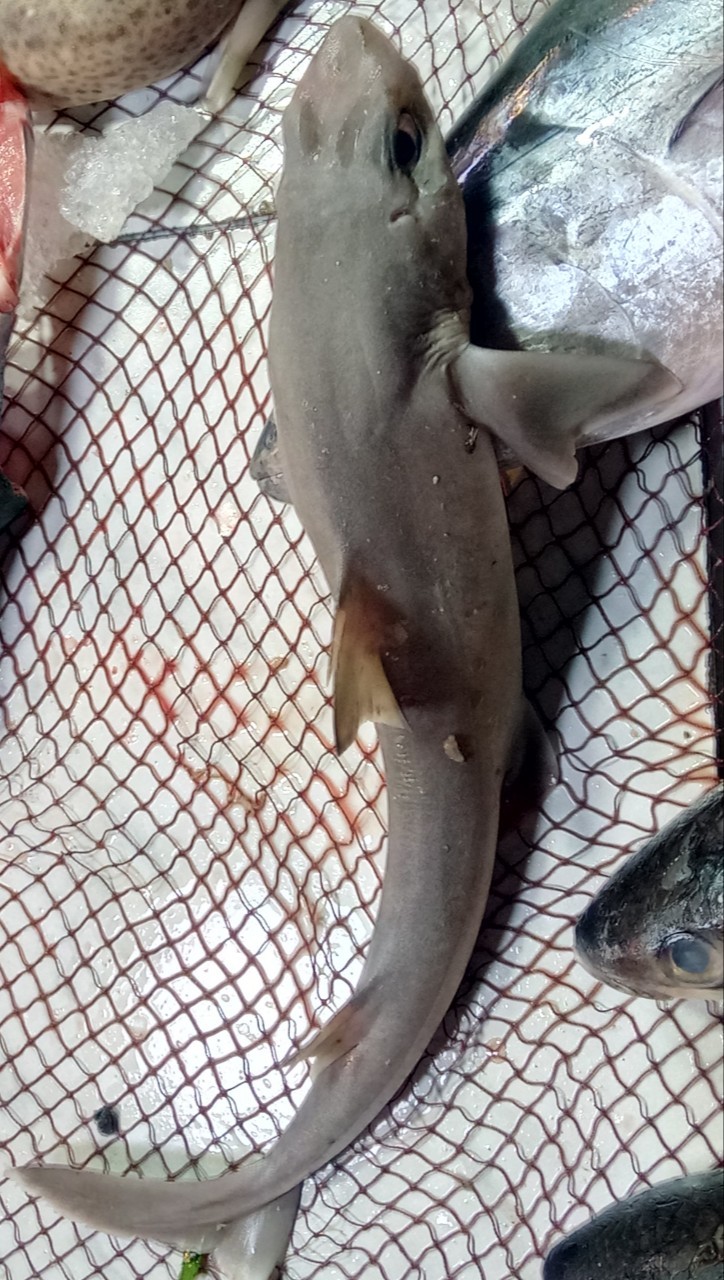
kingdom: Animalia
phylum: Chordata
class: Elasmobranchii
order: Squaliformes
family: Squalidae
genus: Squalus
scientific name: Squalus blainville
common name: Longnose spurdog
